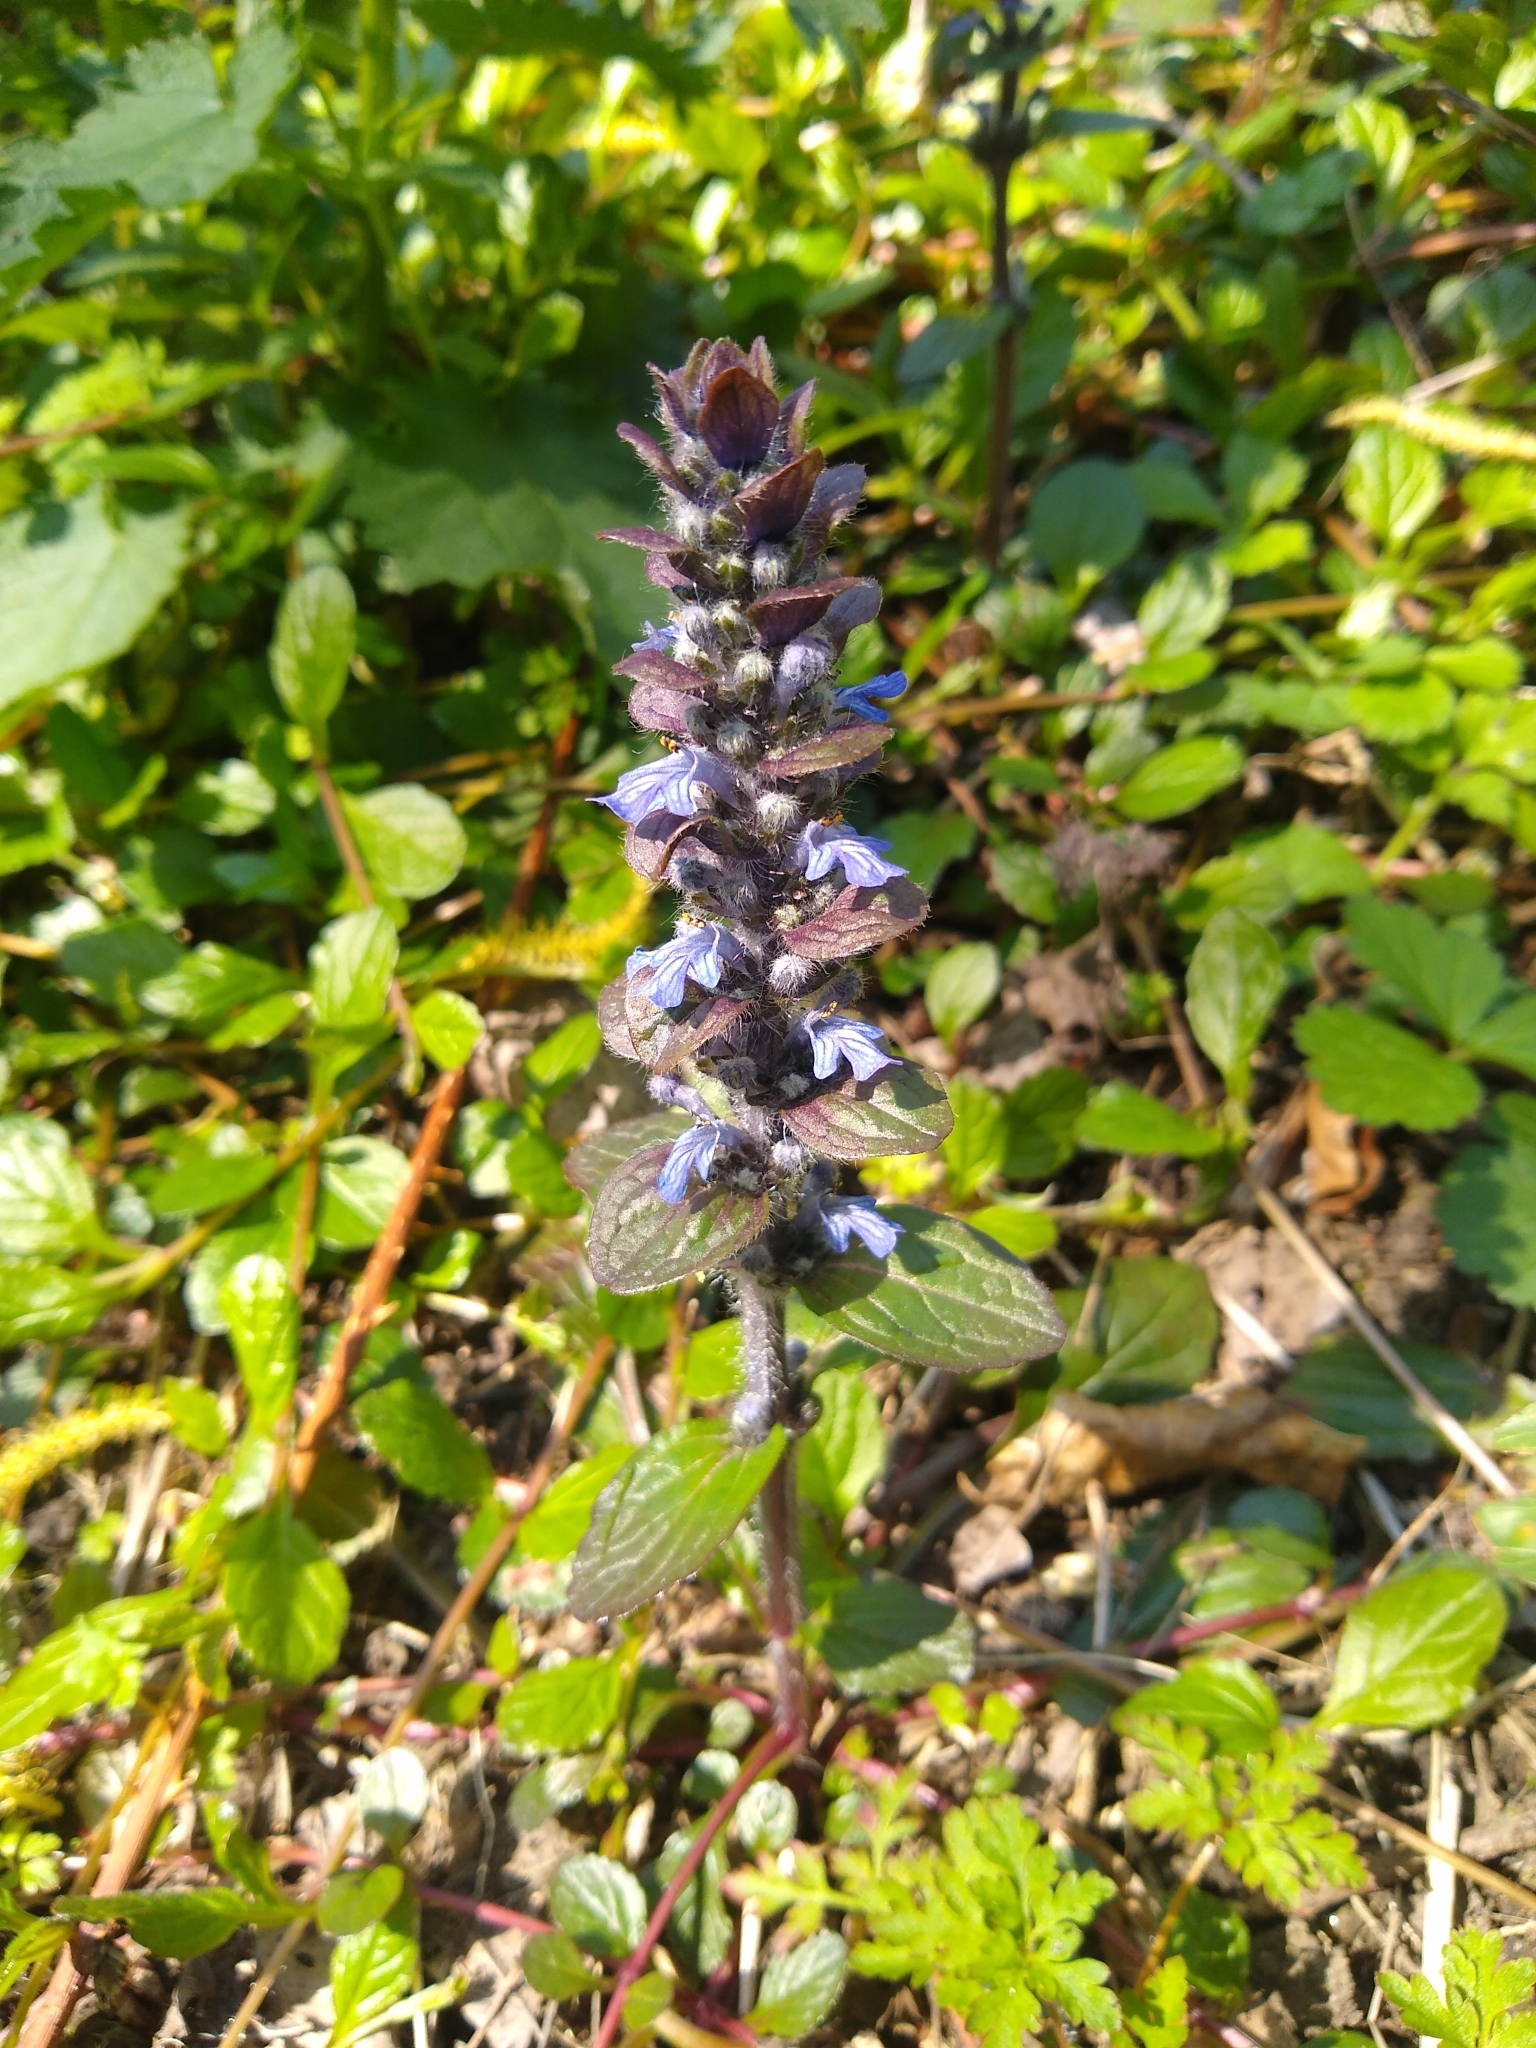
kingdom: Plantae
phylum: Tracheophyta
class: Magnoliopsida
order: Lamiales
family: Lamiaceae
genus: Ajuga
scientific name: Ajuga reptans
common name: Bugle
